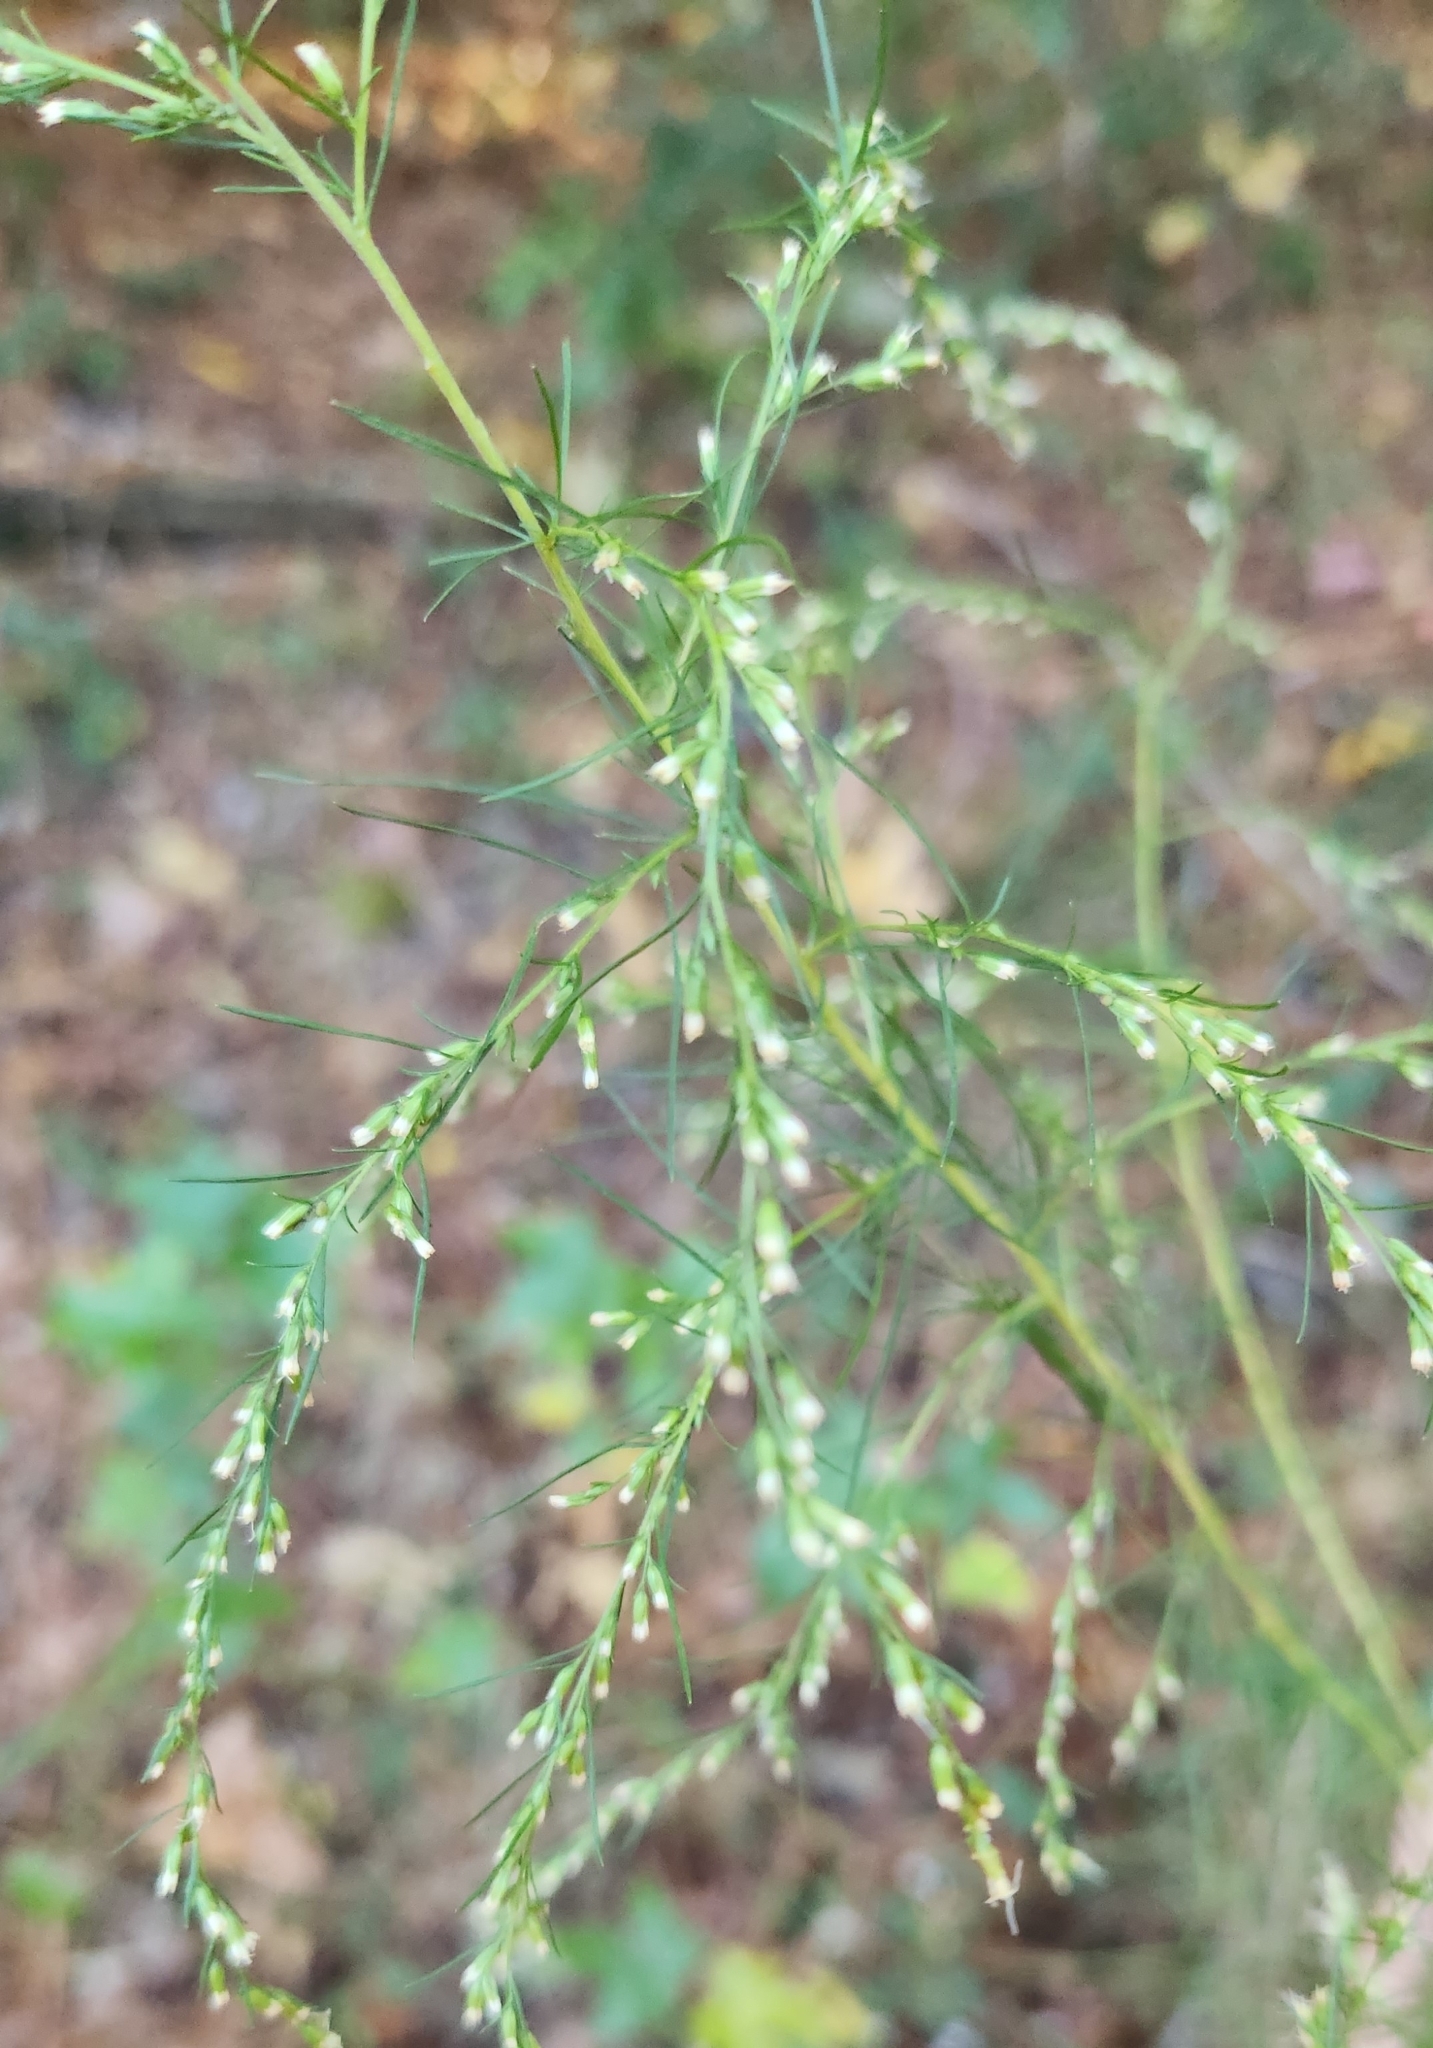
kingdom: Plantae
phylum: Tracheophyta
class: Magnoliopsida
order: Asterales
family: Asteraceae
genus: Eupatorium
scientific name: Eupatorium capillifolium
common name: Dog-fennel
